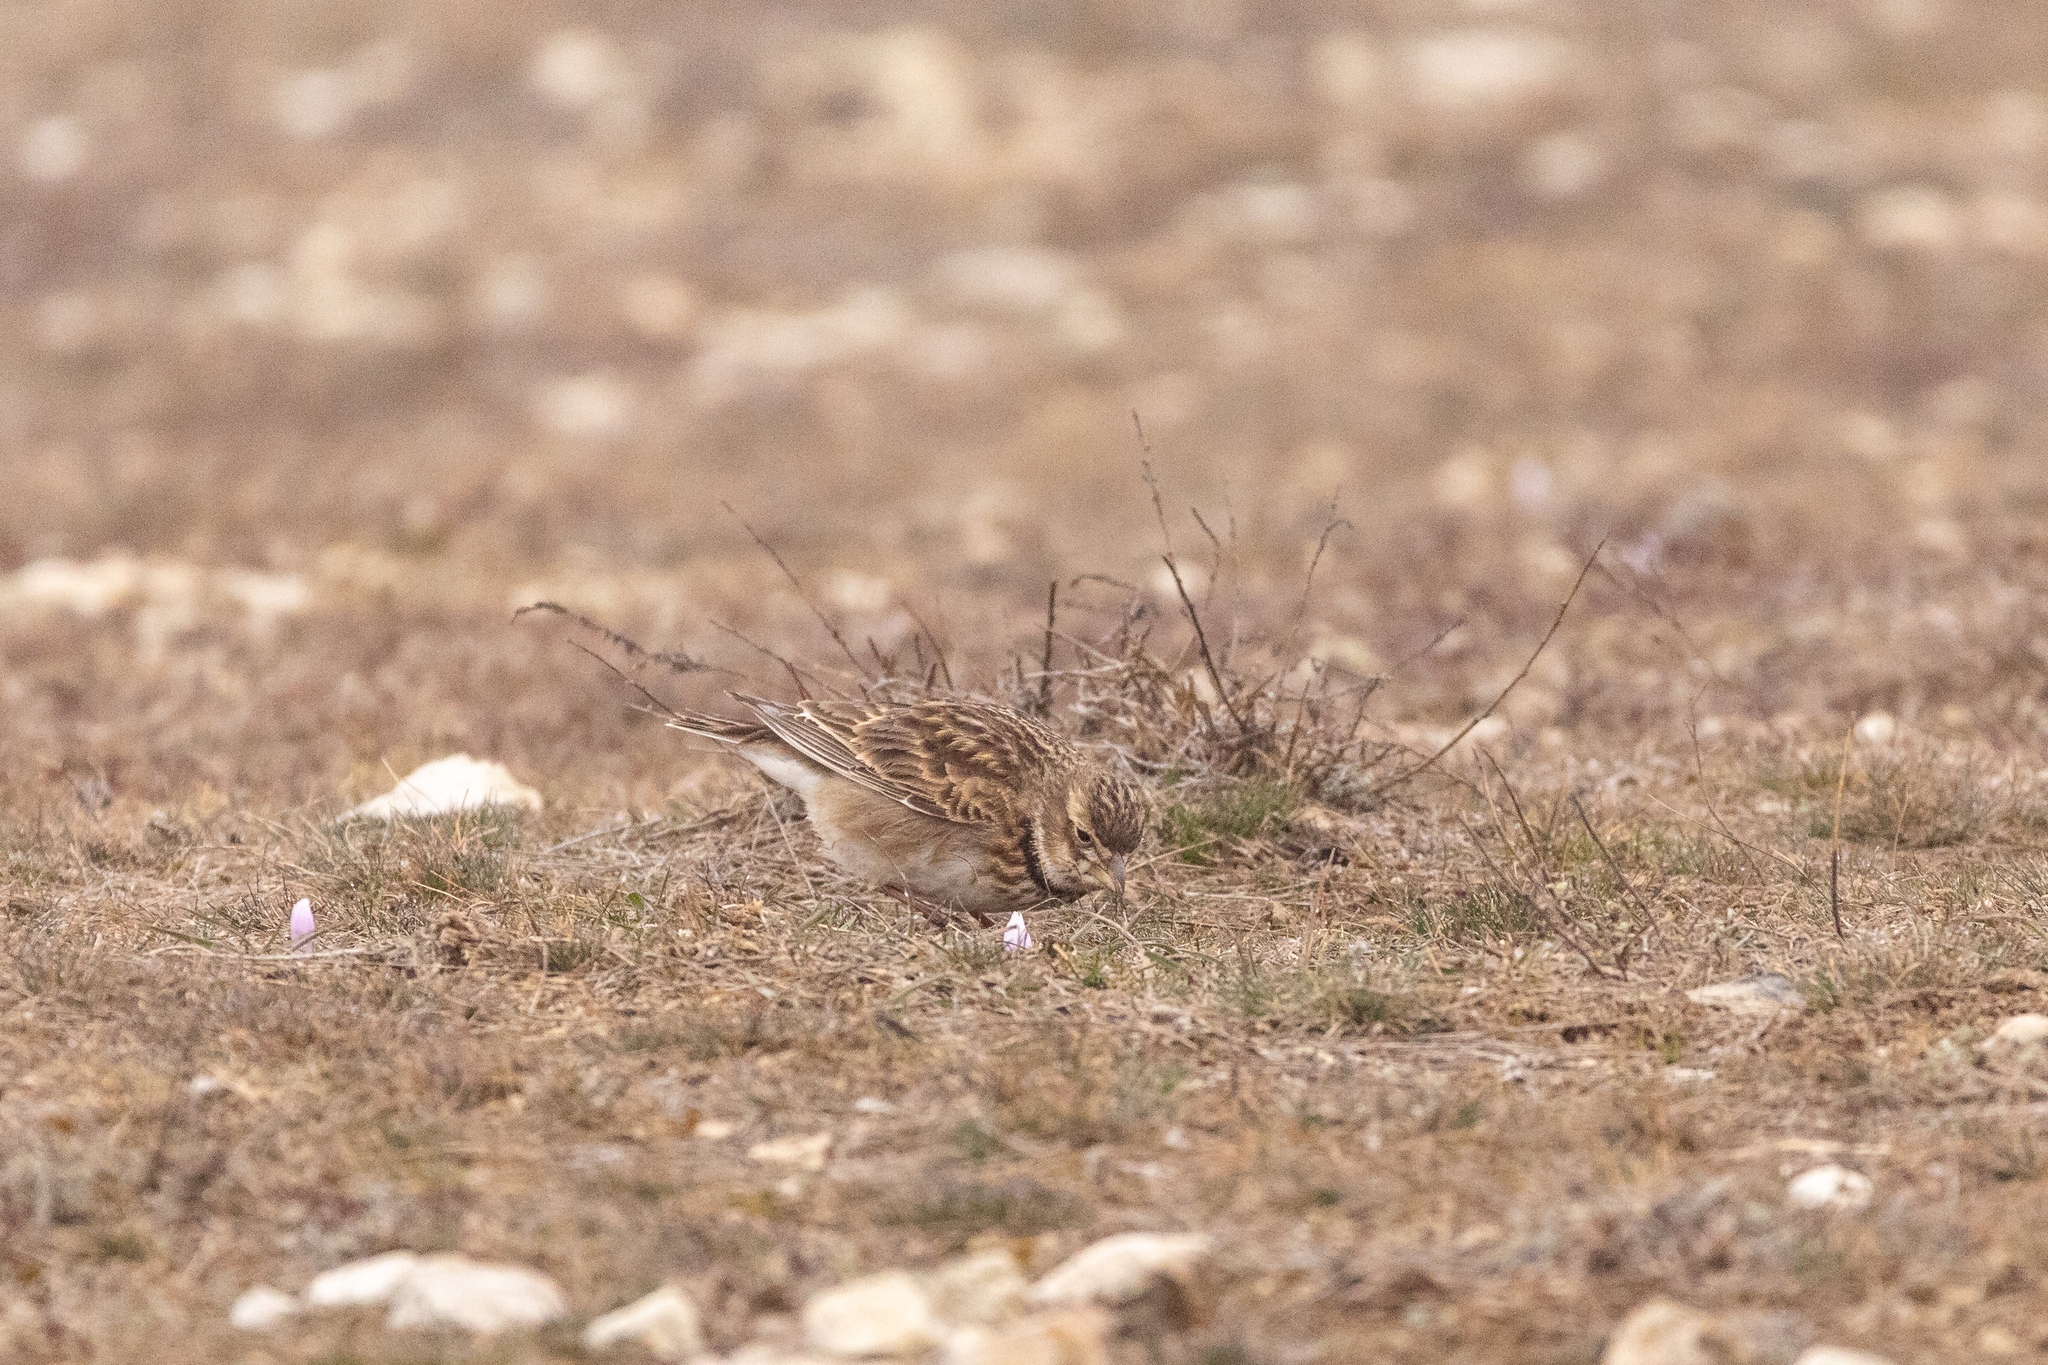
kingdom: Animalia
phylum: Chordata
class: Aves
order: Passeriformes
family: Alaudidae
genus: Melanocorypha
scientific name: Melanocorypha calandra
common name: Calandra lark
